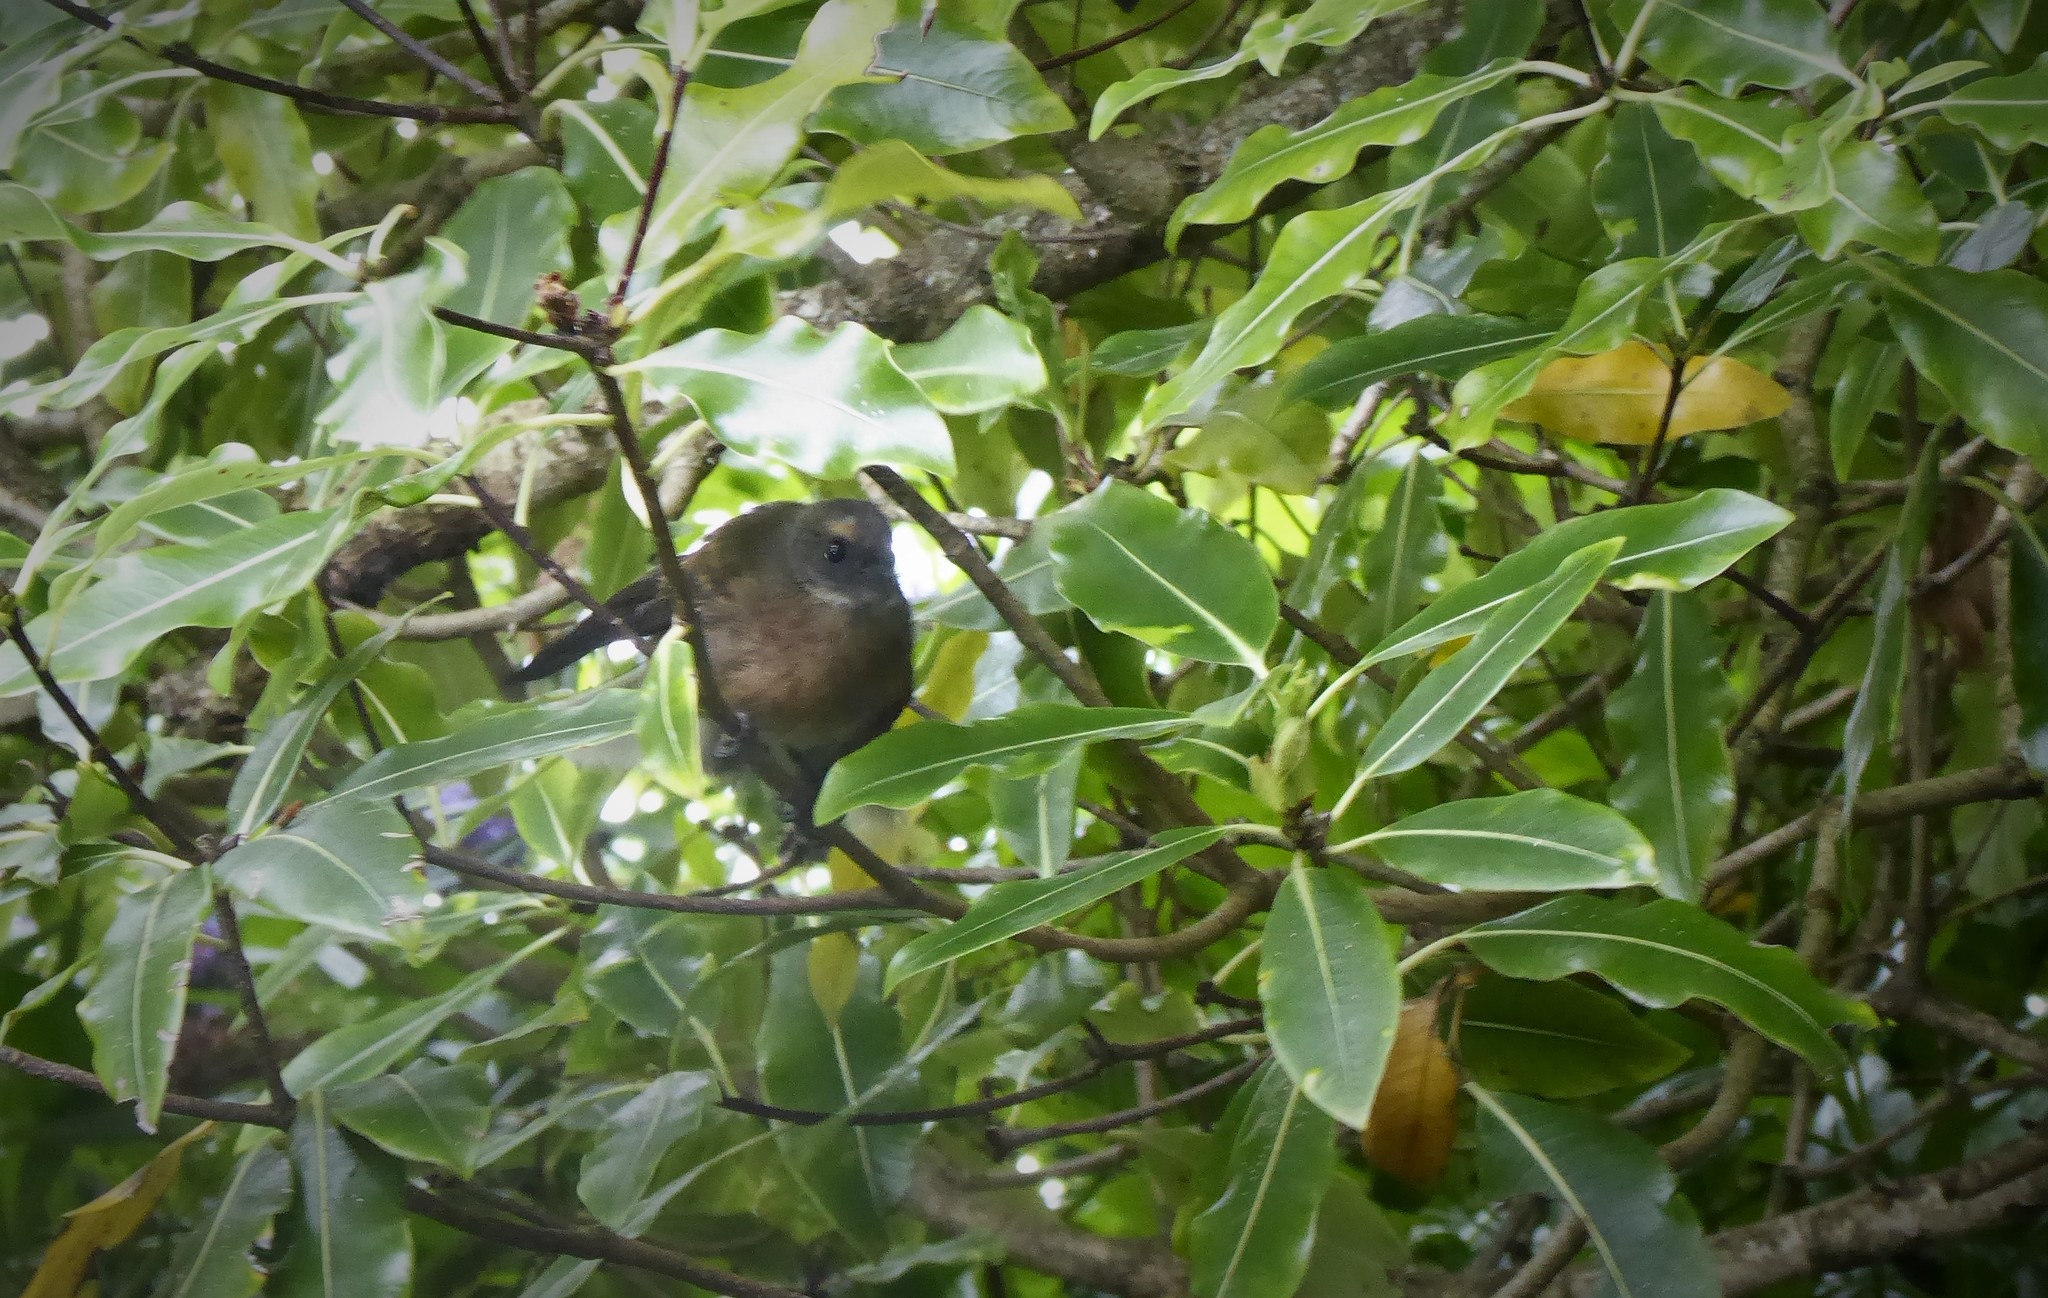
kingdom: Animalia
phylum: Chordata
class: Aves
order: Passeriformes
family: Rhipiduridae
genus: Rhipidura
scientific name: Rhipidura fuliginosa
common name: New zealand fantail
